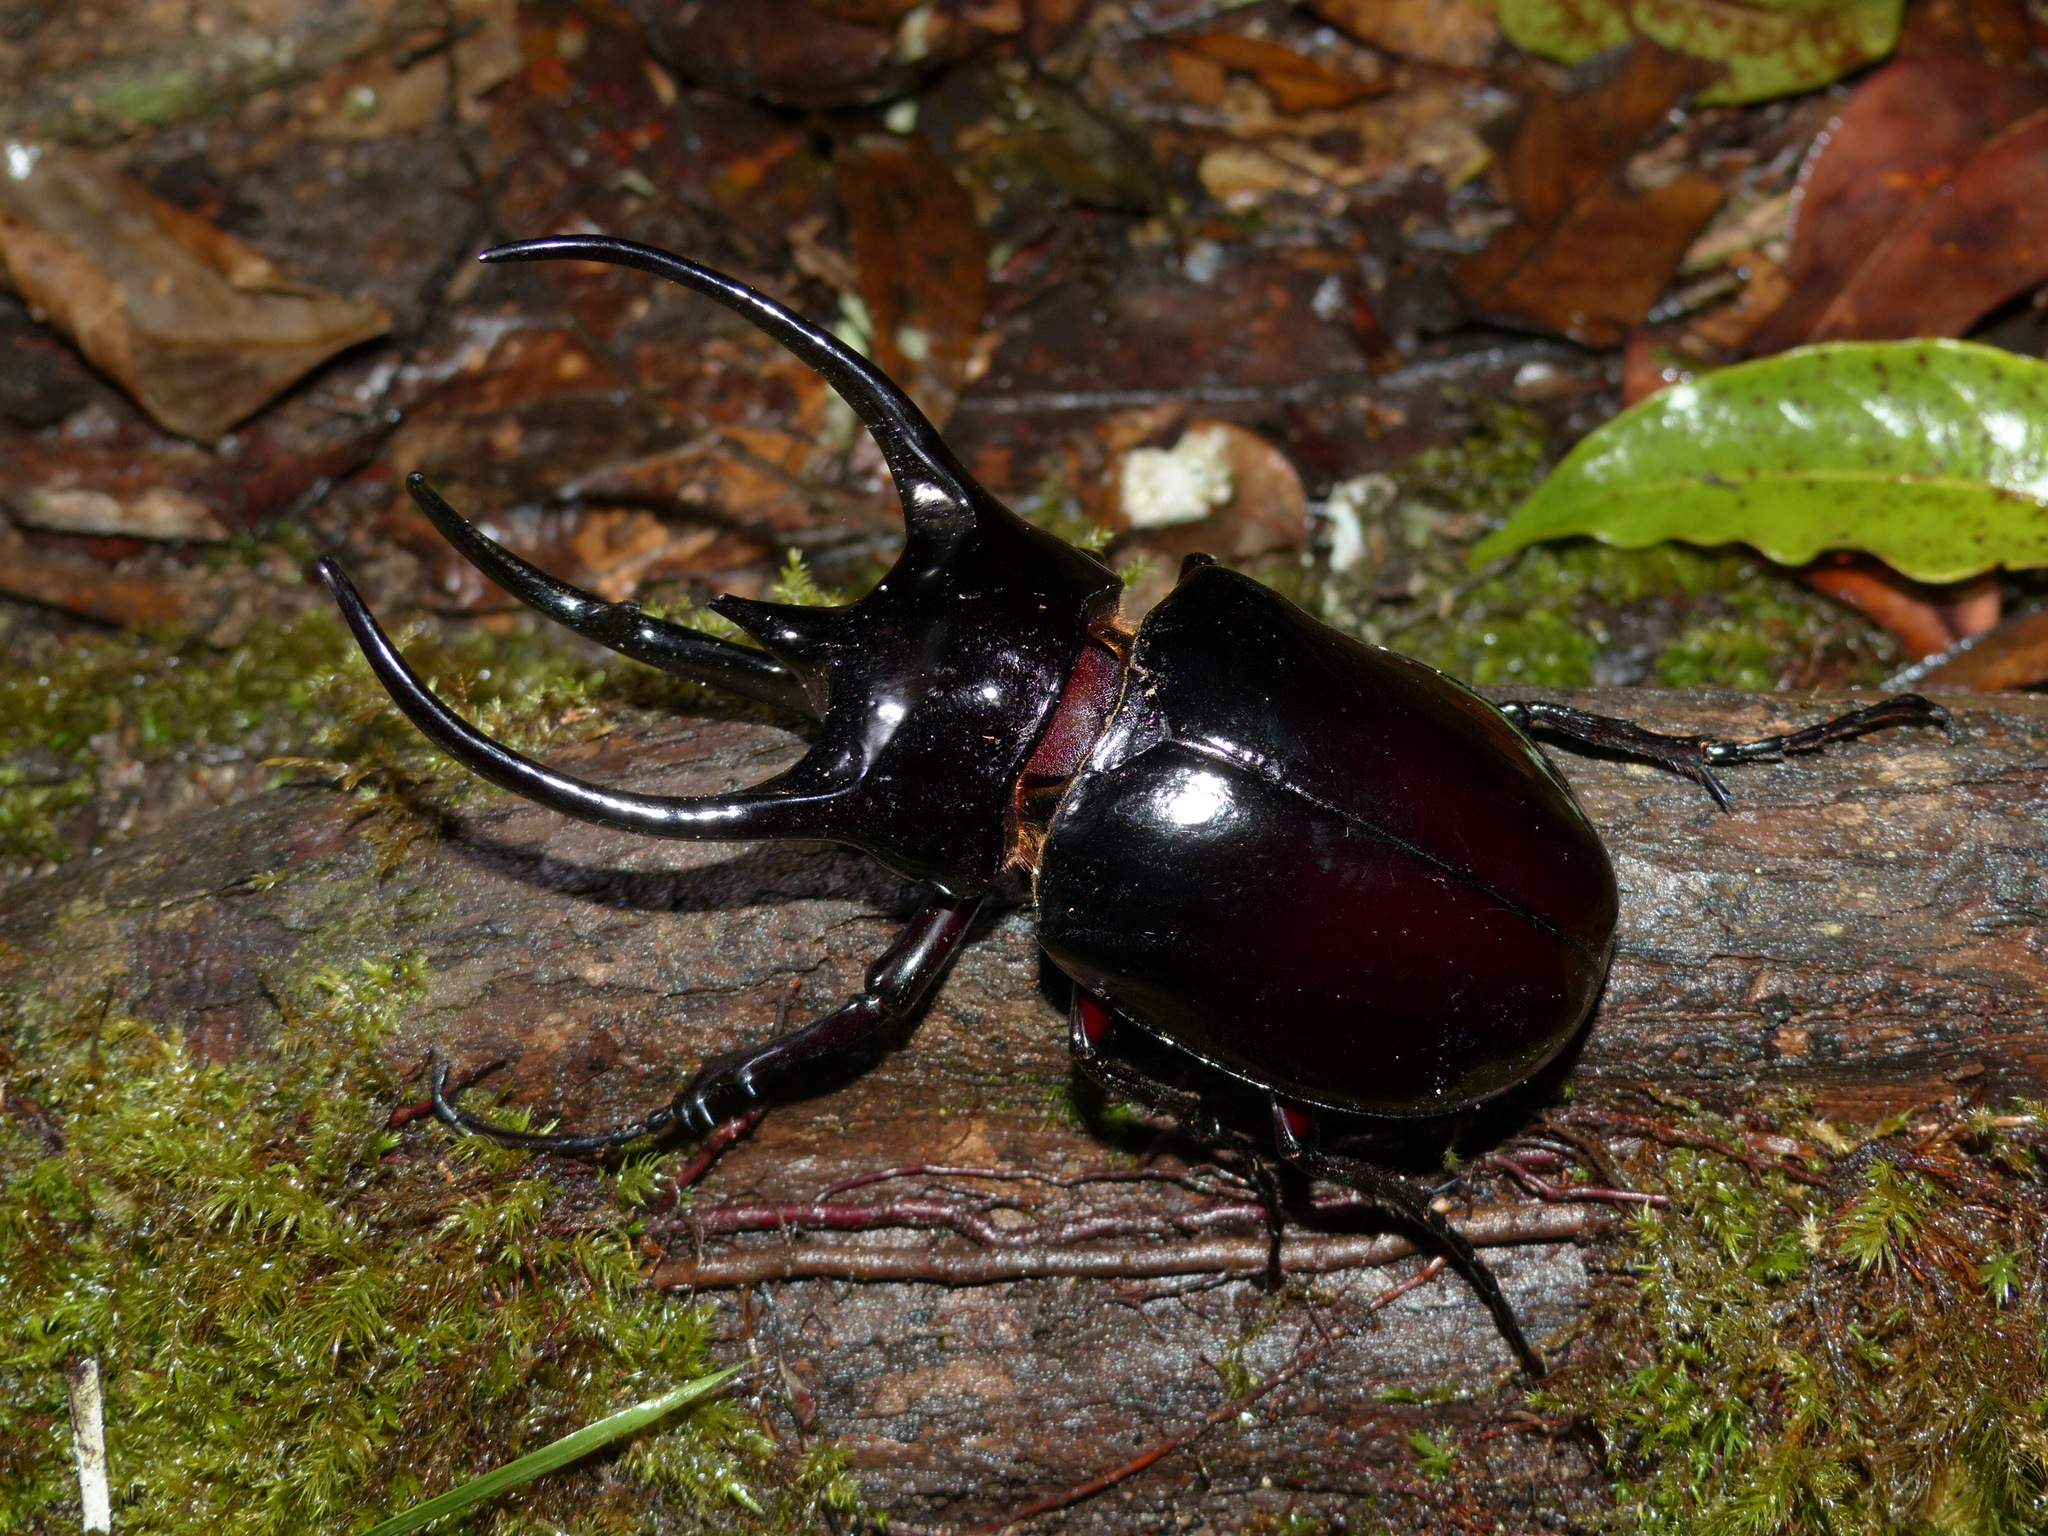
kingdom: Animalia
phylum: Arthropoda
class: Insecta
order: Coleoptera
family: Scarabaeidae
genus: Chalcosoma
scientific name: Chalcosoma chiron
